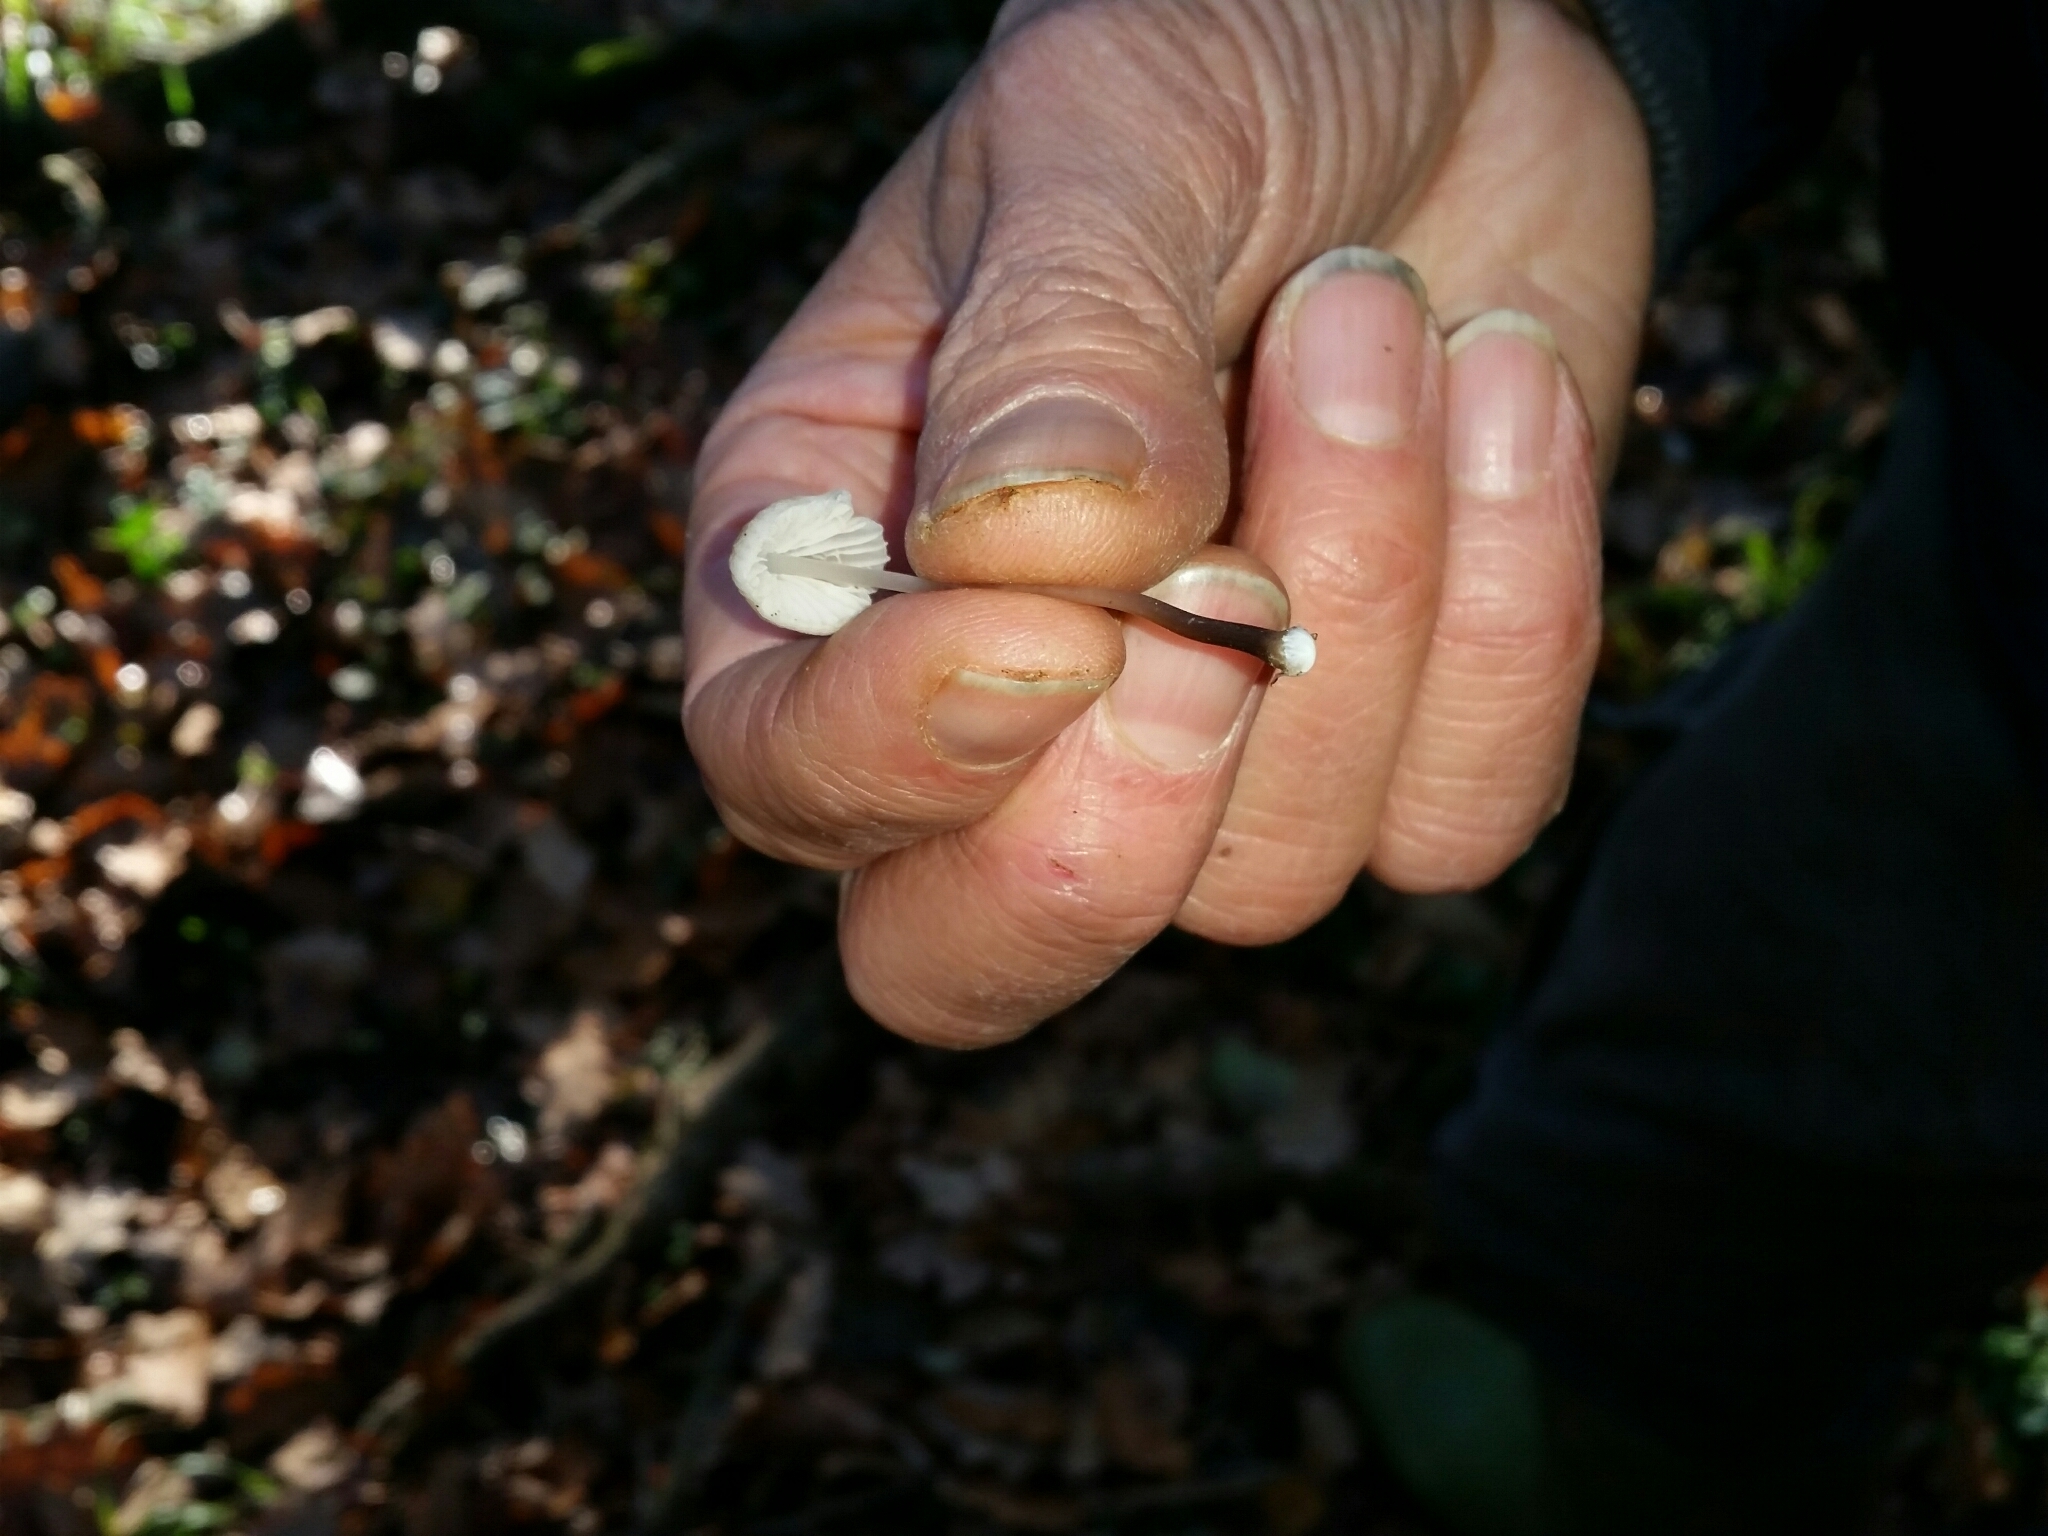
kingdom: Fungi
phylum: Basidiomycota
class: Agaricomycetes
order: Agaricales
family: Mycenaceae
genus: Mycena
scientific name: Mycena galopus
